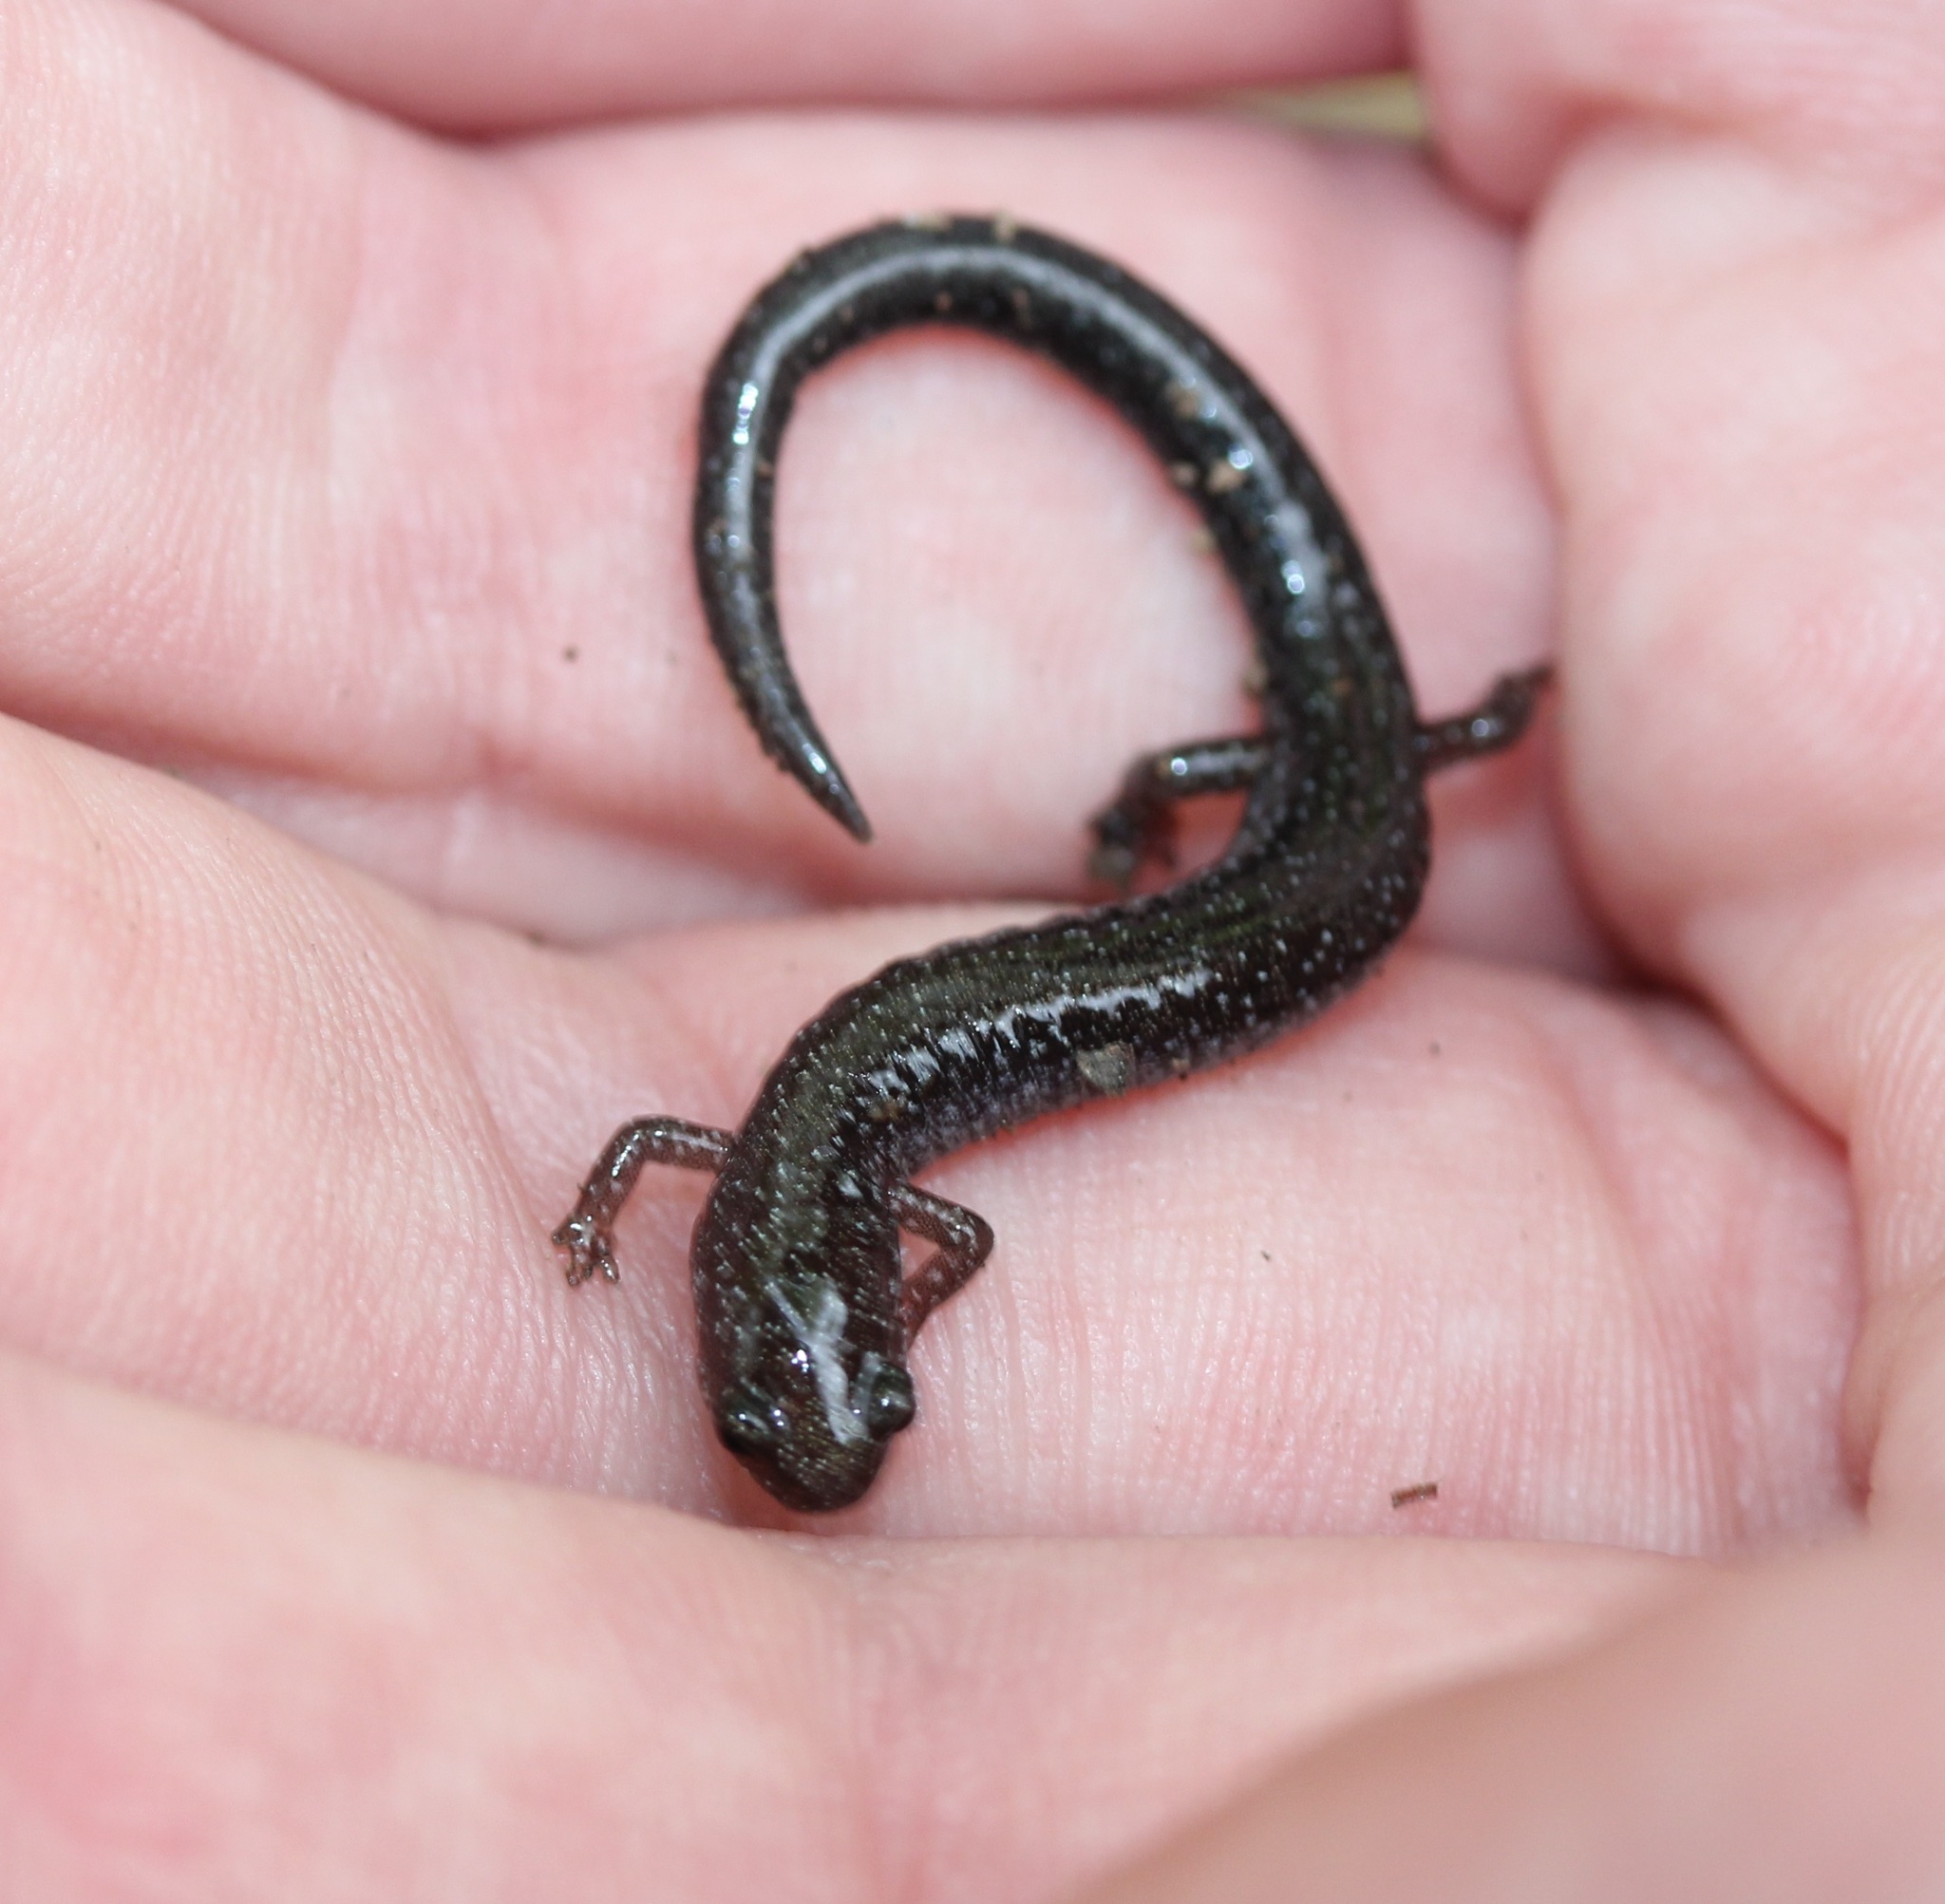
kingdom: Animalia
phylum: Chordata
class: Amphibia
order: Caudata
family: Plethodontidae
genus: Plethodon
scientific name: Plethodon cinereus
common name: Redback salamander
